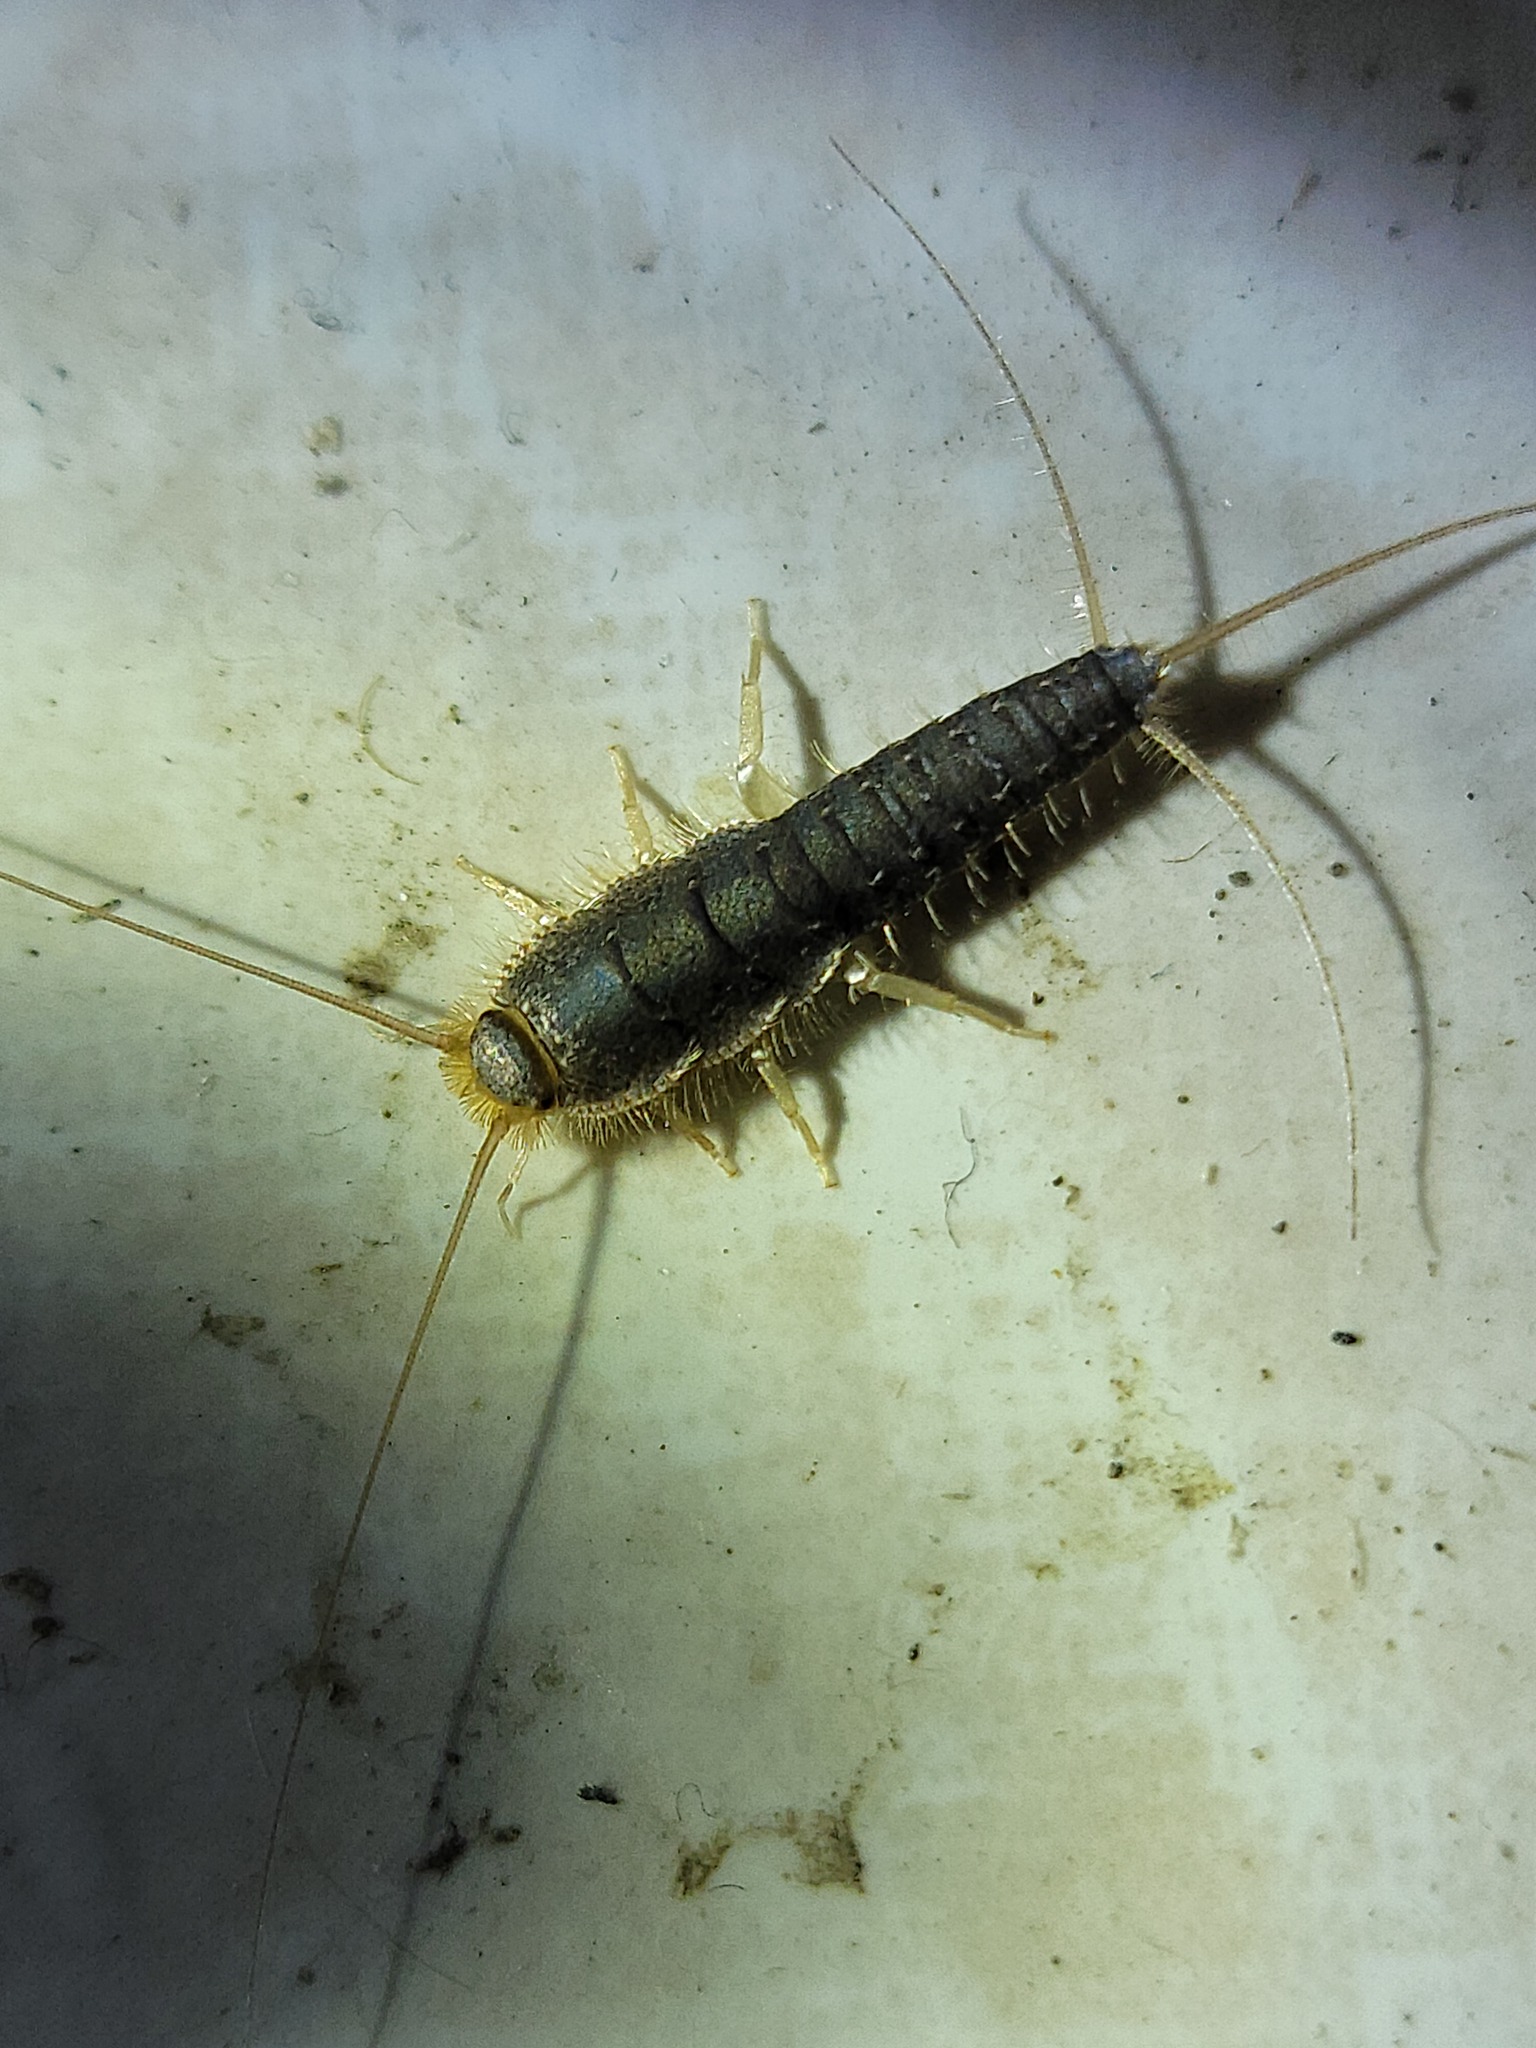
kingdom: Animalia
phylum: Arthropoda
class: Insecta
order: Zygentoma
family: Lepismatidae
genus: Ctenolepisma
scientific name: Ctenolepisma longicaudatum
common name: Silverfish
